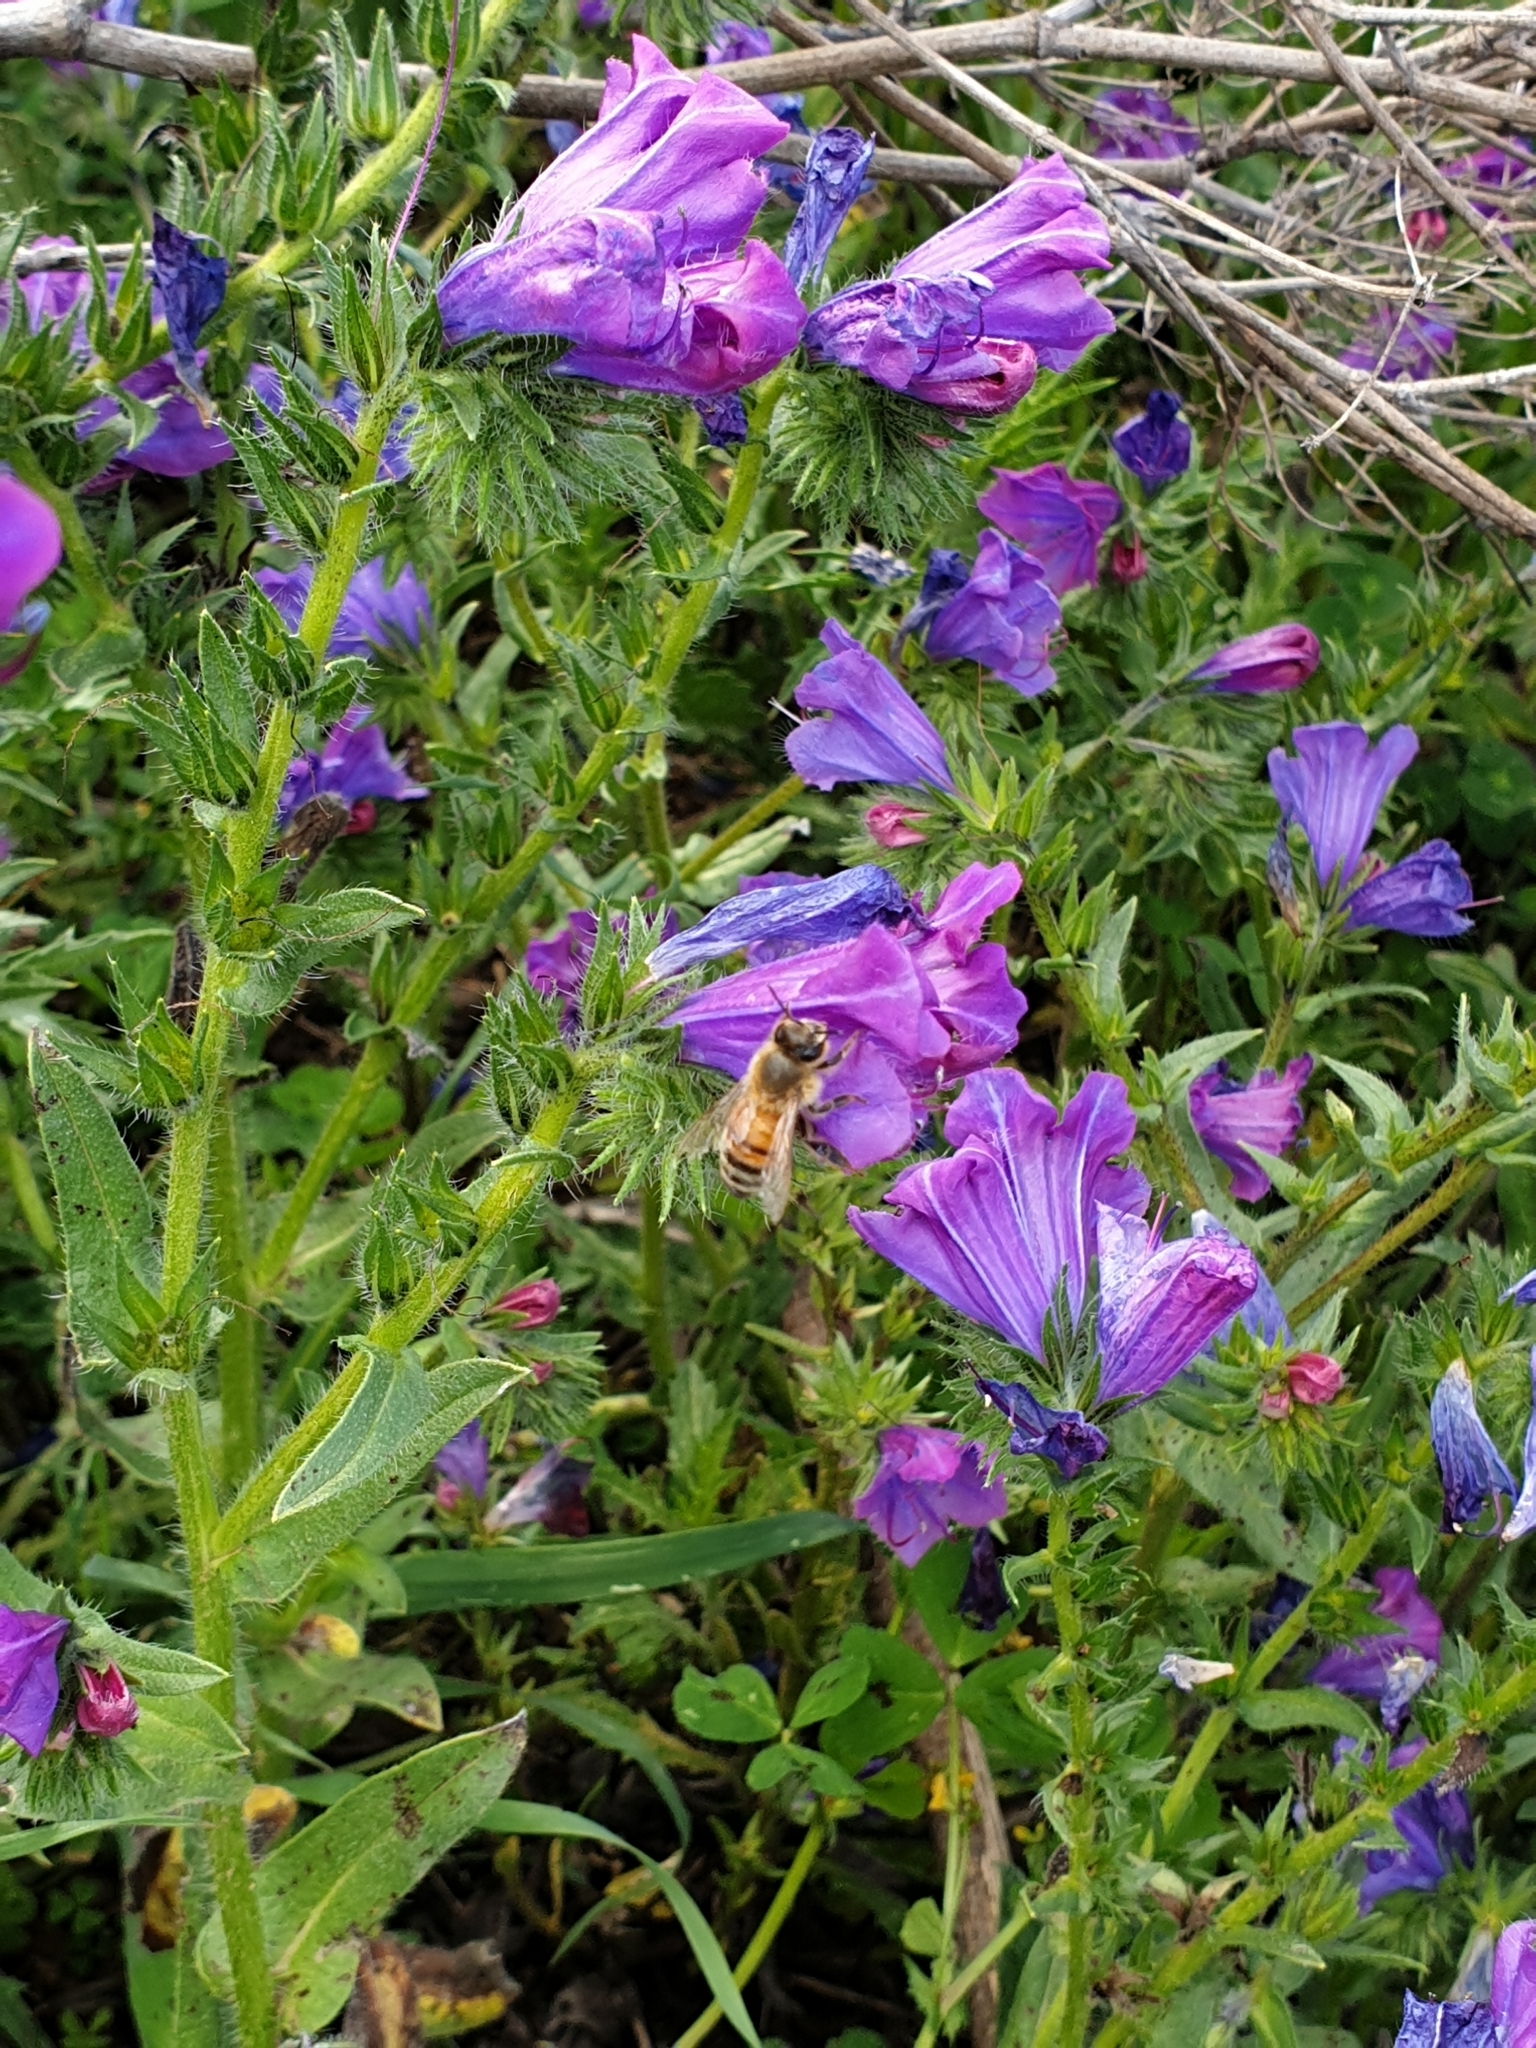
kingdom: Animalia
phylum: Arthropoda
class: Insecta
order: Hymenoptera
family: Apidae
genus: Apis
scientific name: Apis mellifera
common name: Honey bee
